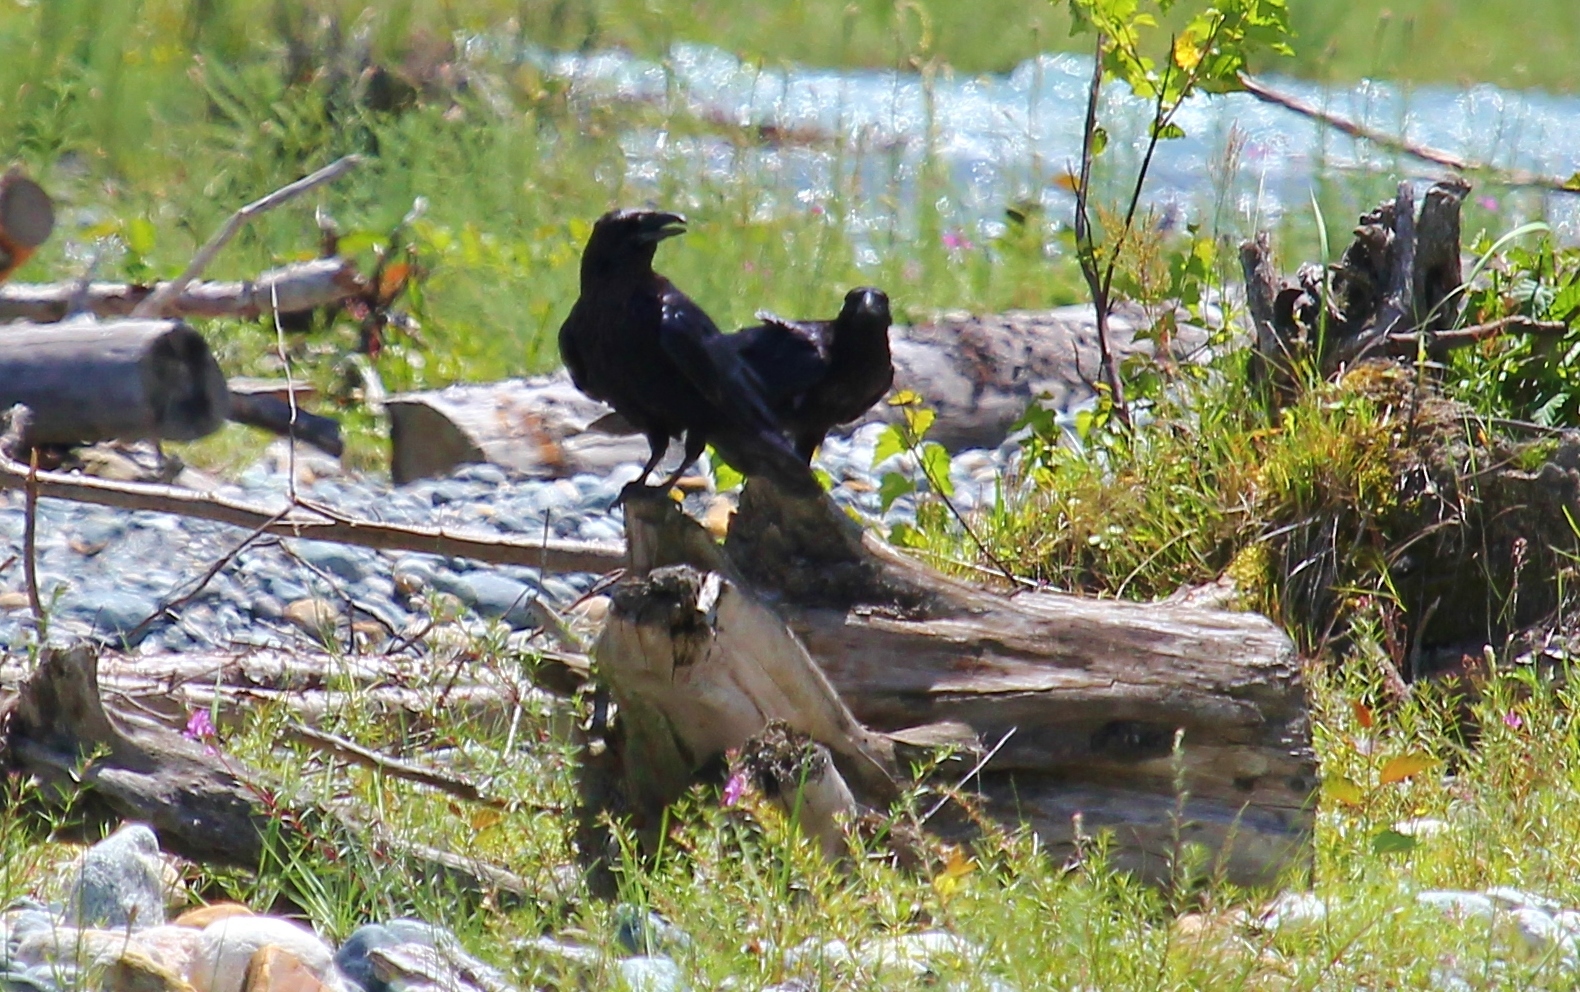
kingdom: Animalia
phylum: Chordata
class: Aves
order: Passeriformes
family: Corvidae
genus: Corvus
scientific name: Corvus corax
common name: Common raven
